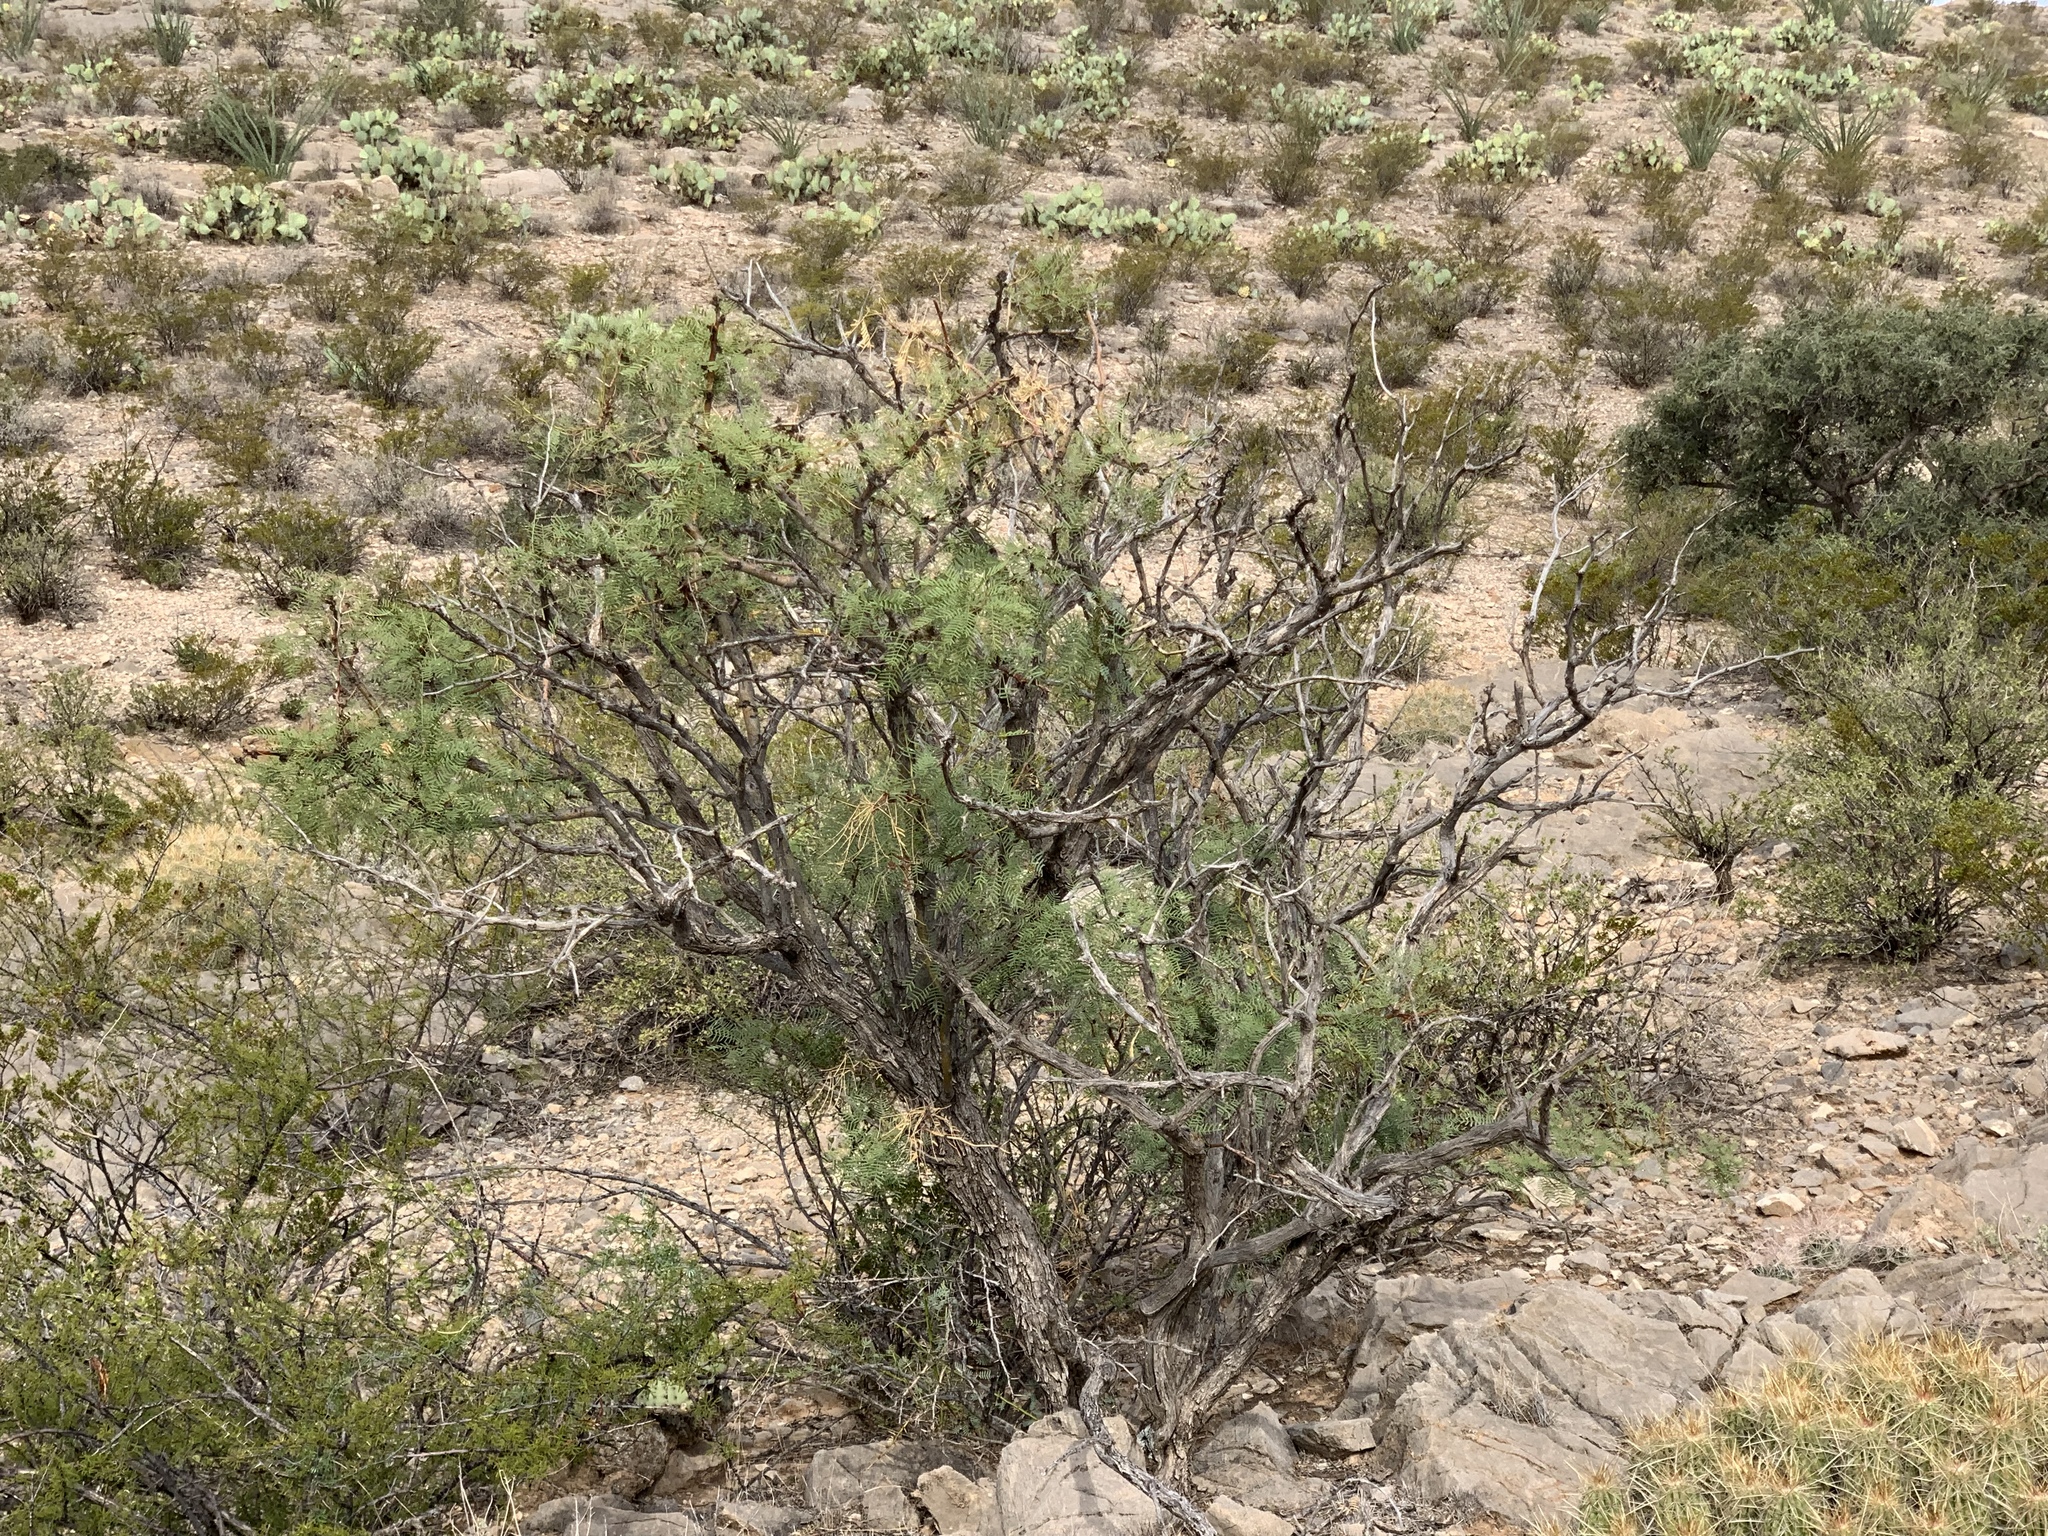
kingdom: Plantae
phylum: Tracheophyta
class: Magnoliopsida
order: Fabales
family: Fabaceae
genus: Prosopis
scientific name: Prosopis glandulosa
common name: Honey mesquite
